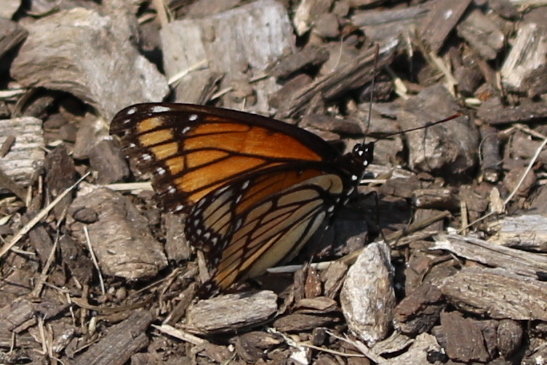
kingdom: Animalia
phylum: Arthropoda
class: Insecta
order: Lepidoptera
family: Nymphalidae
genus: Limenitis
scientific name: Limenitis archippus
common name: Viceroy
